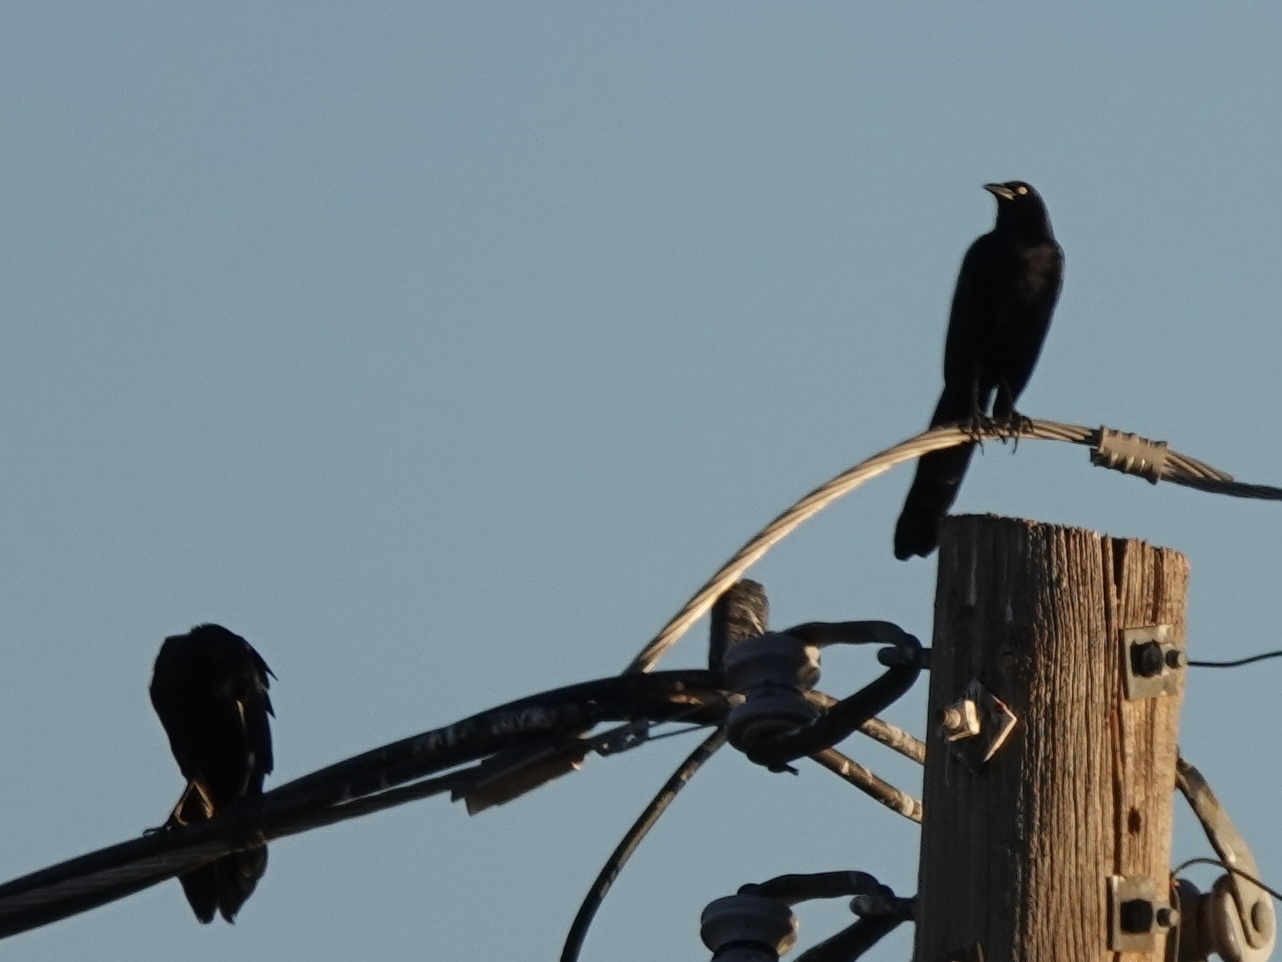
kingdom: Animalia
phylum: Chordata
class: Aves
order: Passeriformes
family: Icteridae
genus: Quiscalus
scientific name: Quiscalus mexicanus
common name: Great-tailed grackle
